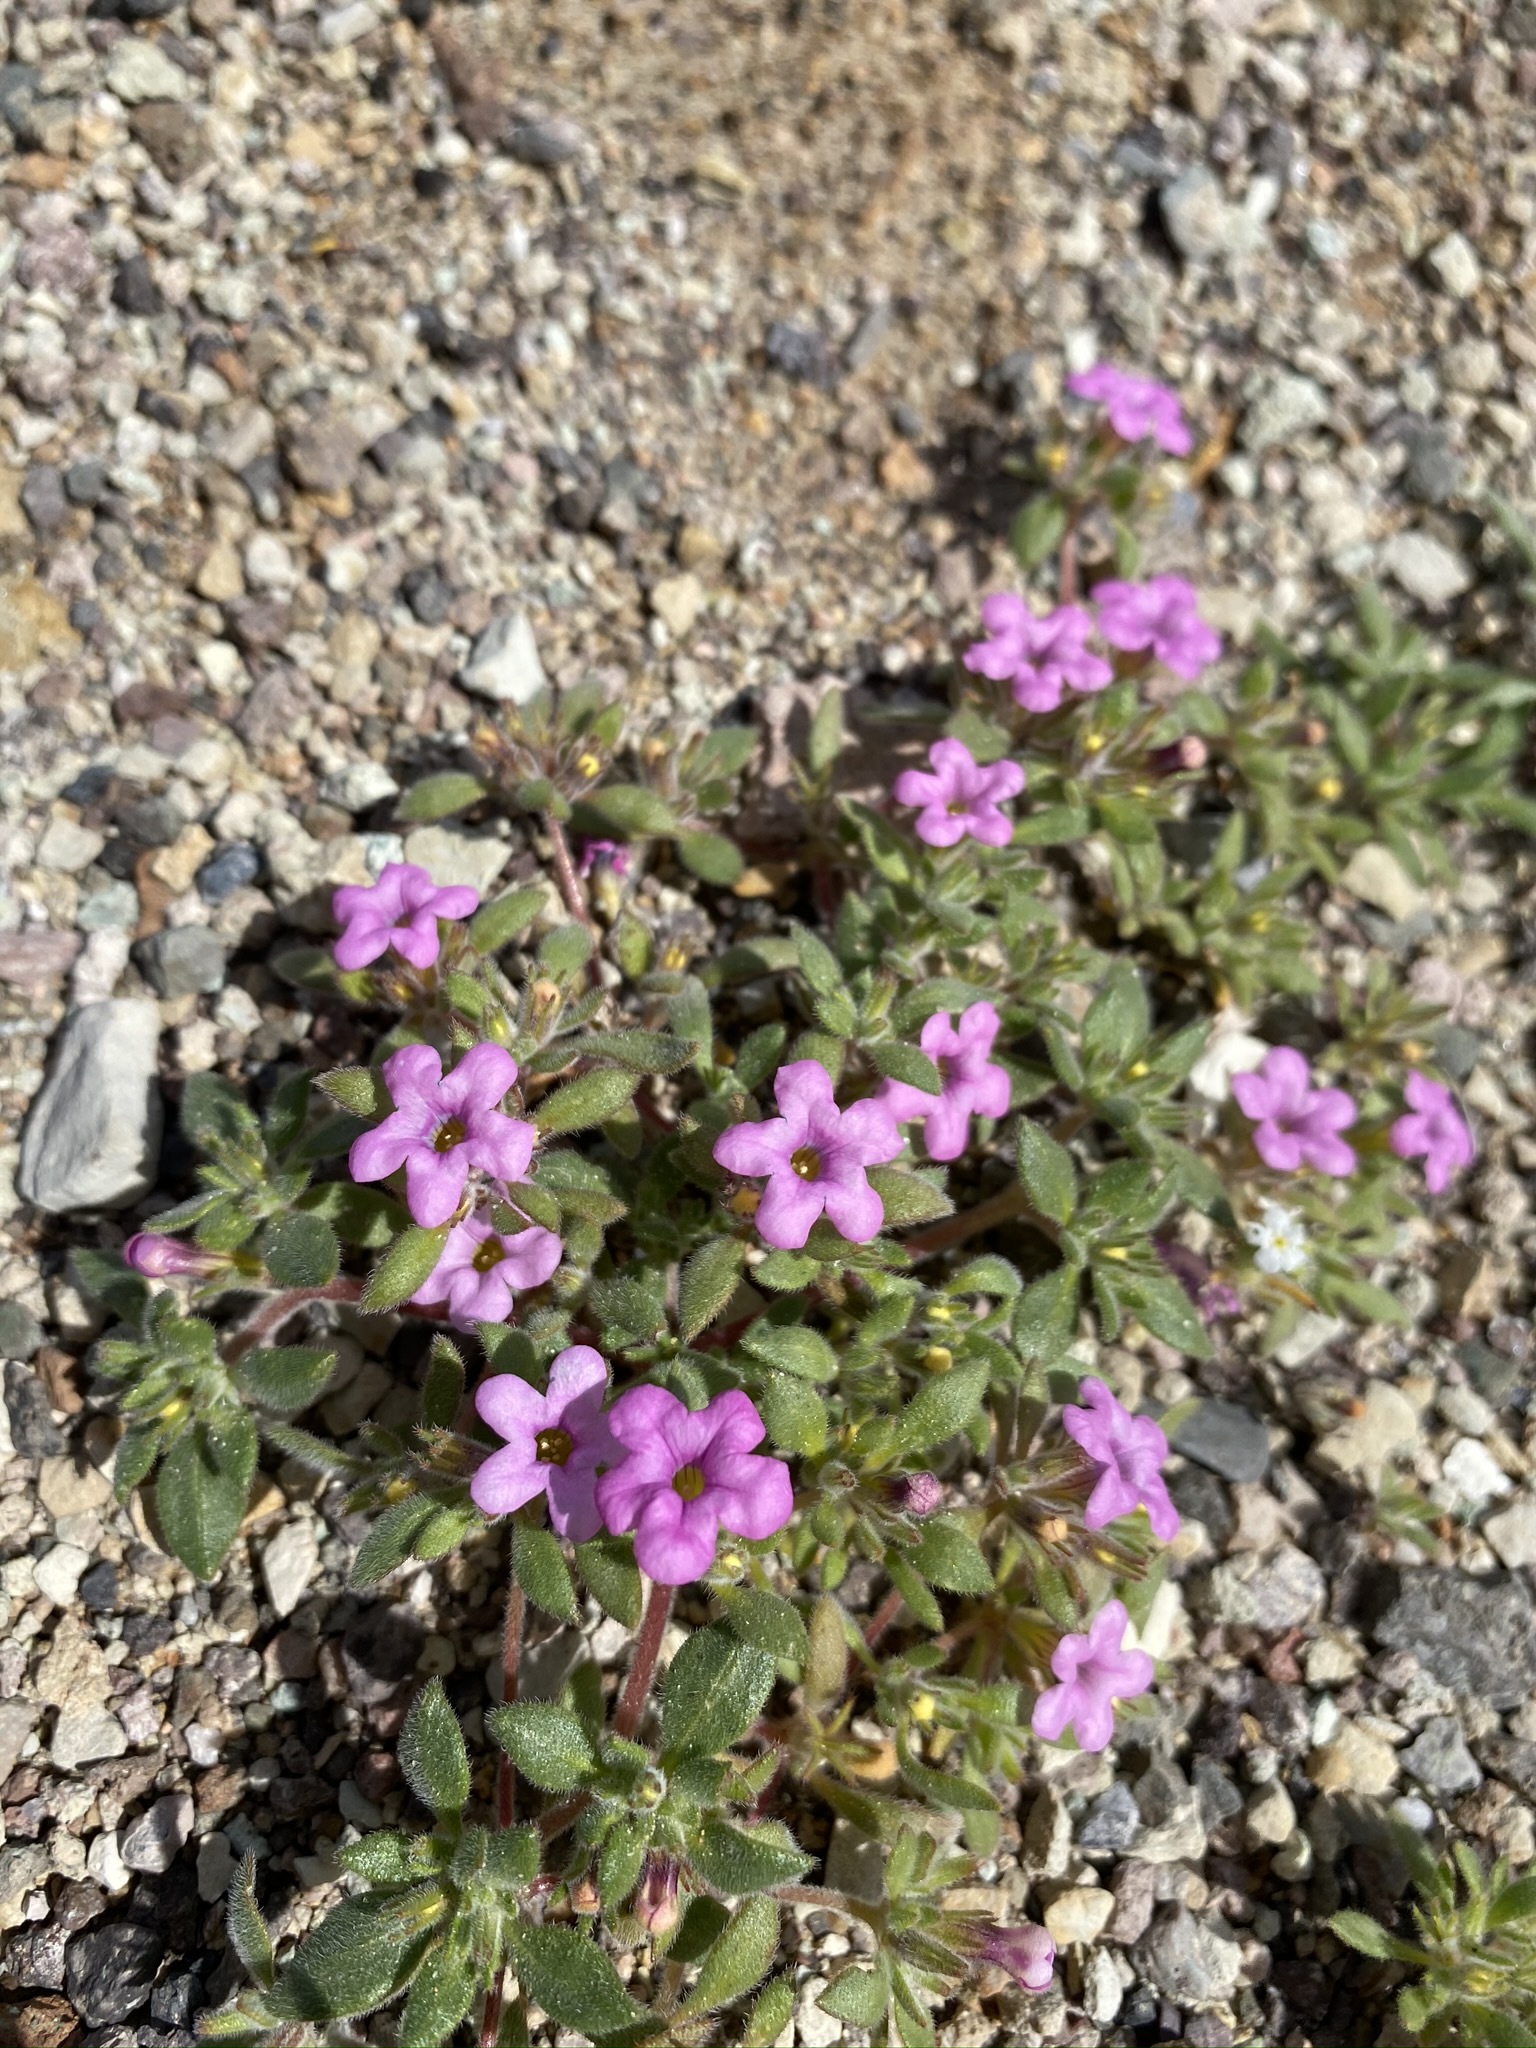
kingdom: Plantae
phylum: Tracheophyta
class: Magnoliopsida
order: Boraginales
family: Namaceae
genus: Nama
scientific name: Nama demissa
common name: Leafy nama
